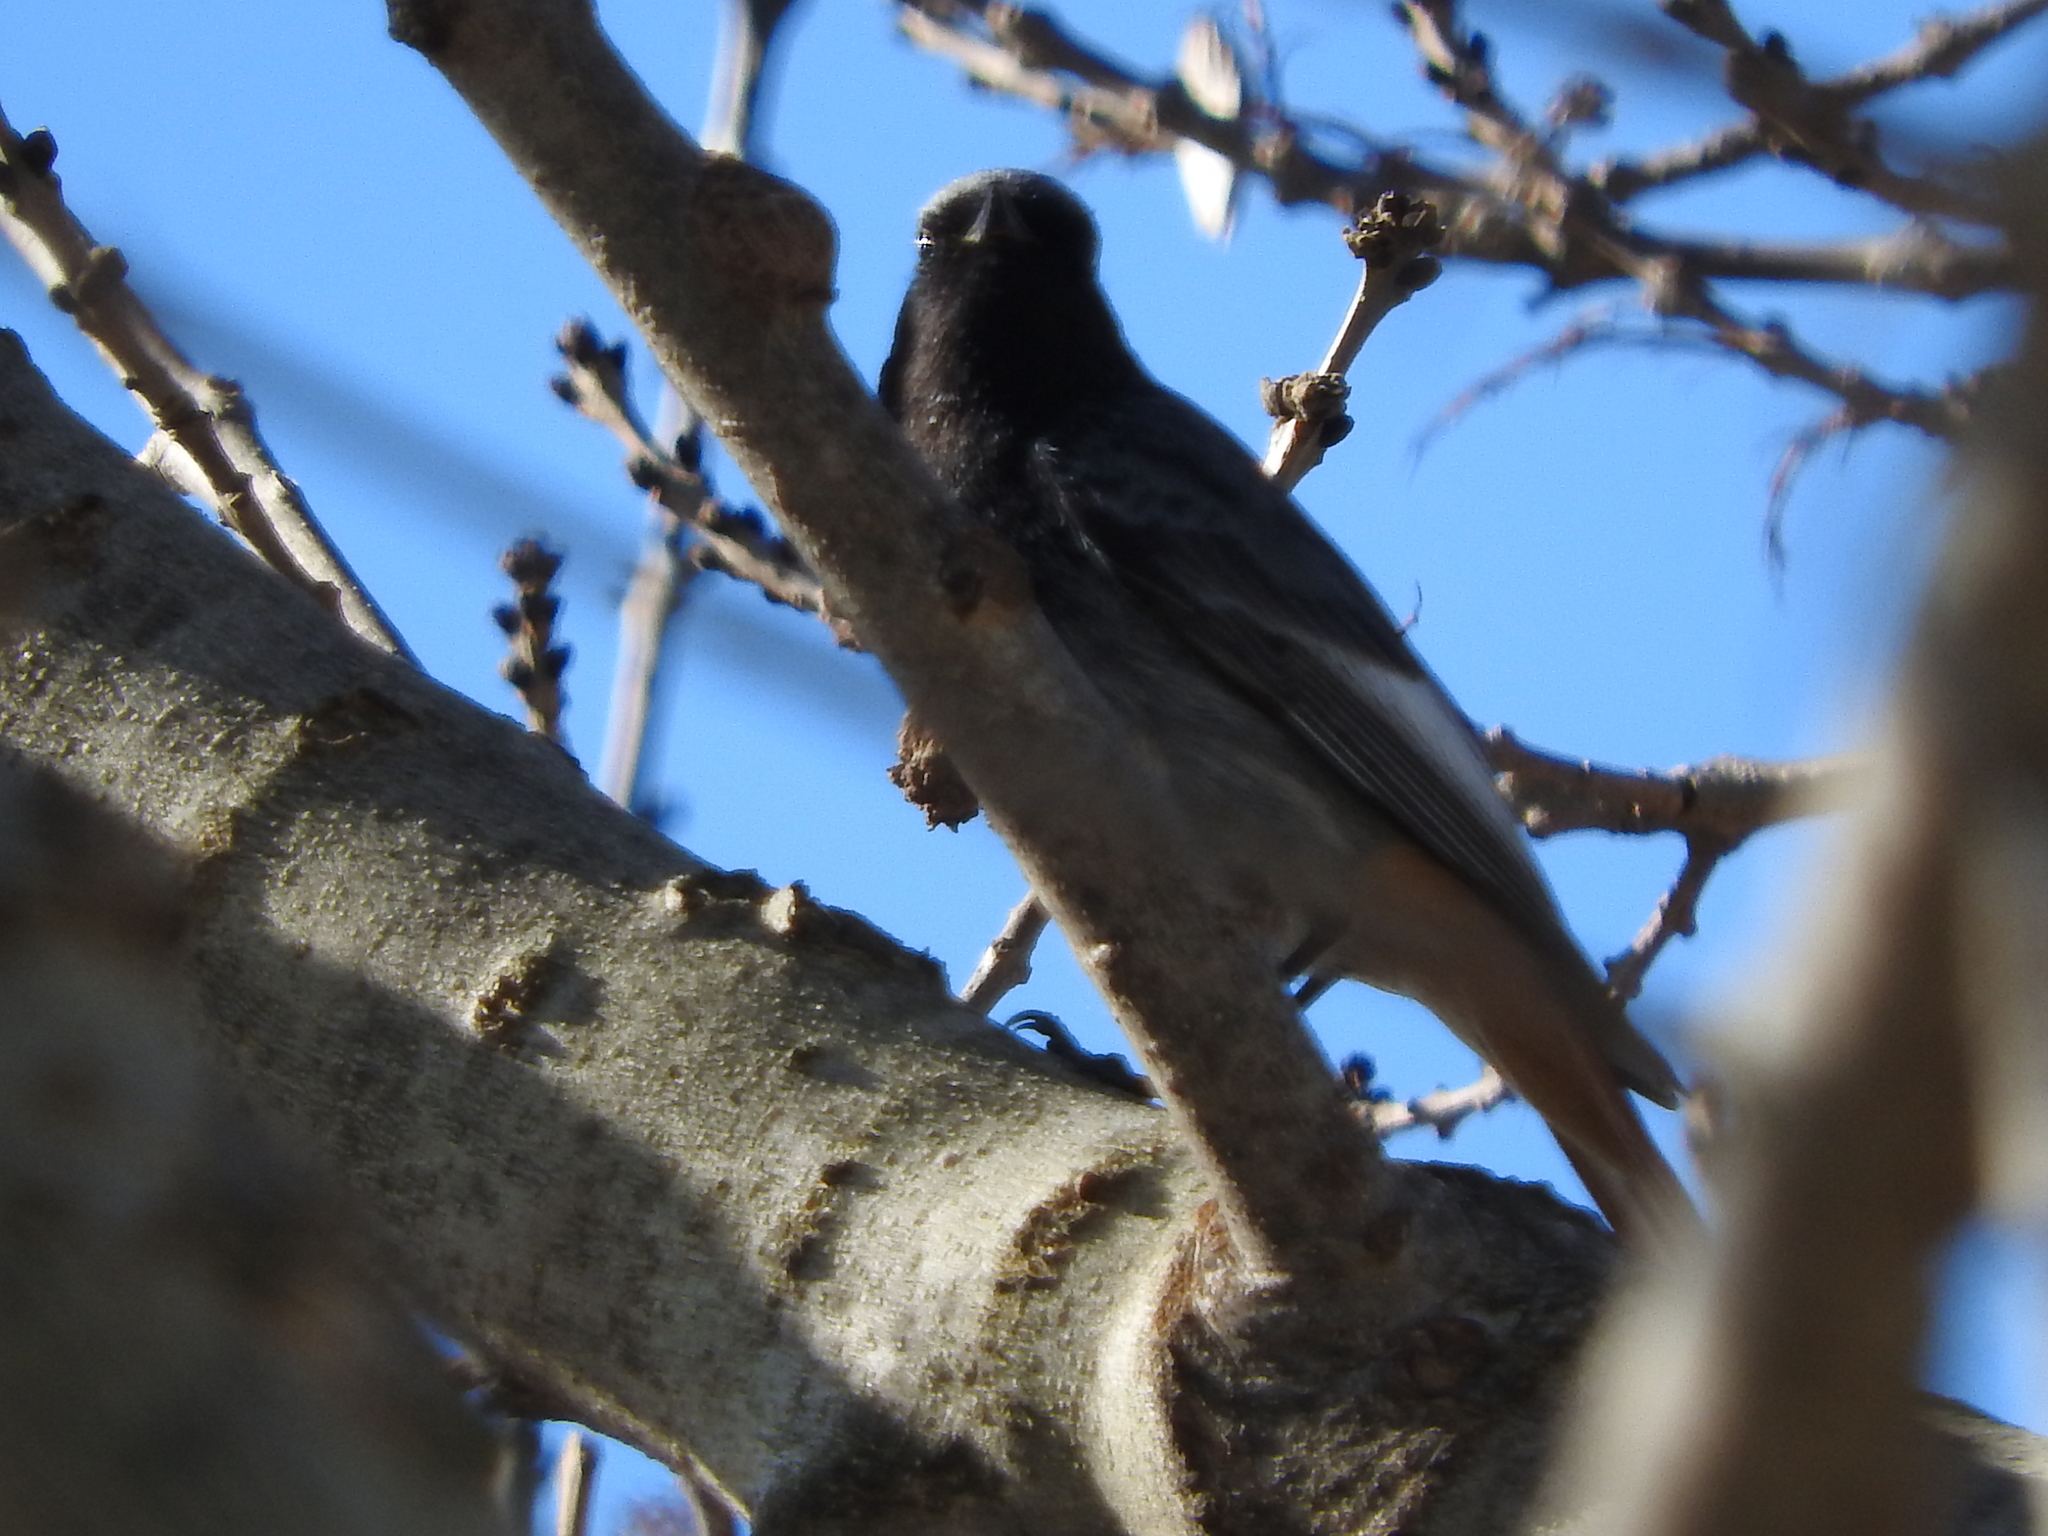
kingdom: Animalia
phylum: Chordata
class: Aves
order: Passeriformes
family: Muscicapidae
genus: Phoenicurus
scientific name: Phoenicurus ochruros
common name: Black redstart
